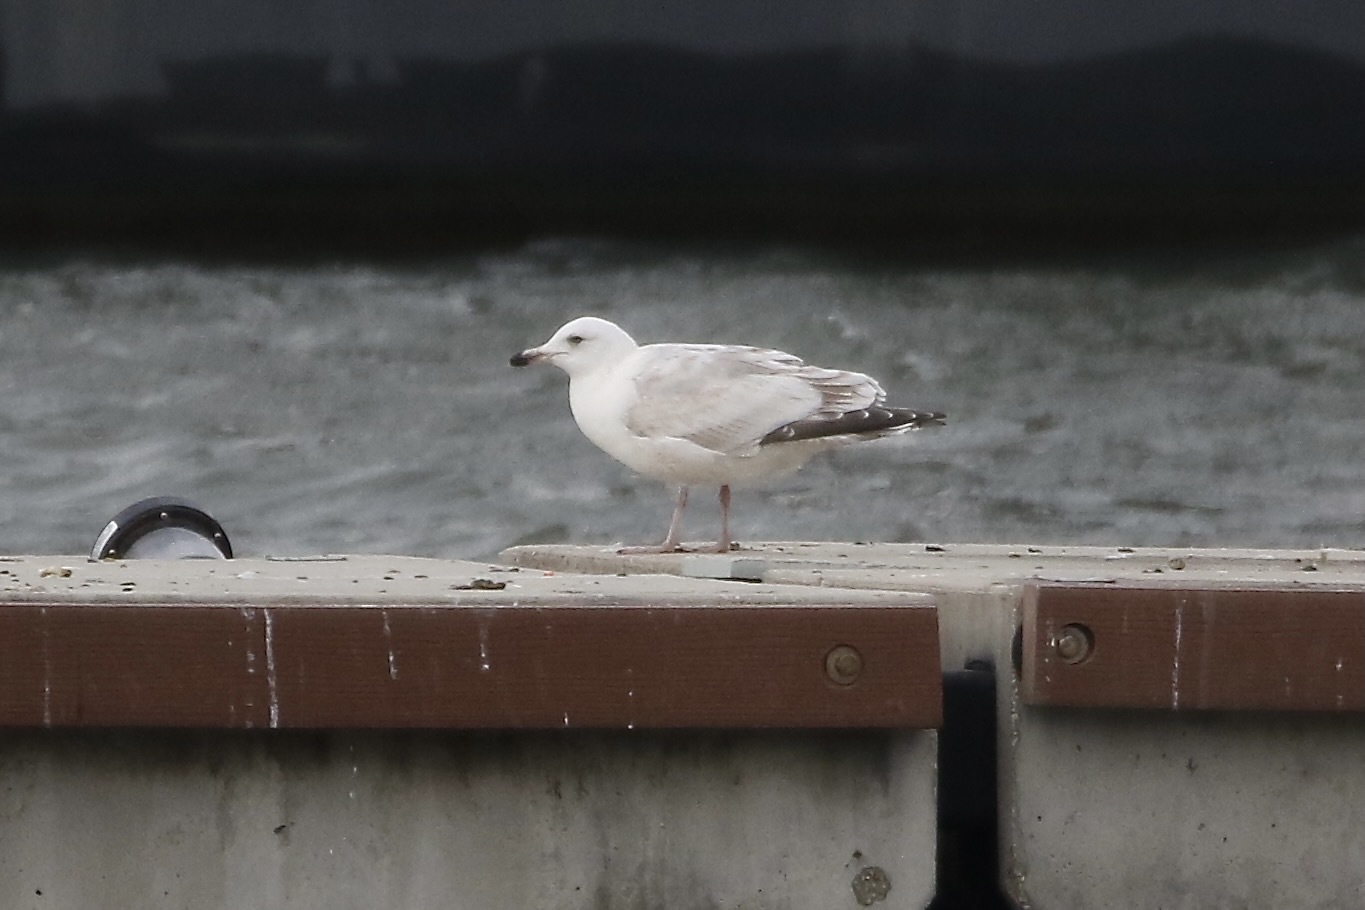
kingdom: Animalia
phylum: Chordata
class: Aves
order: Charadriiformes
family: Laridae
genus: Larus
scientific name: Larus
